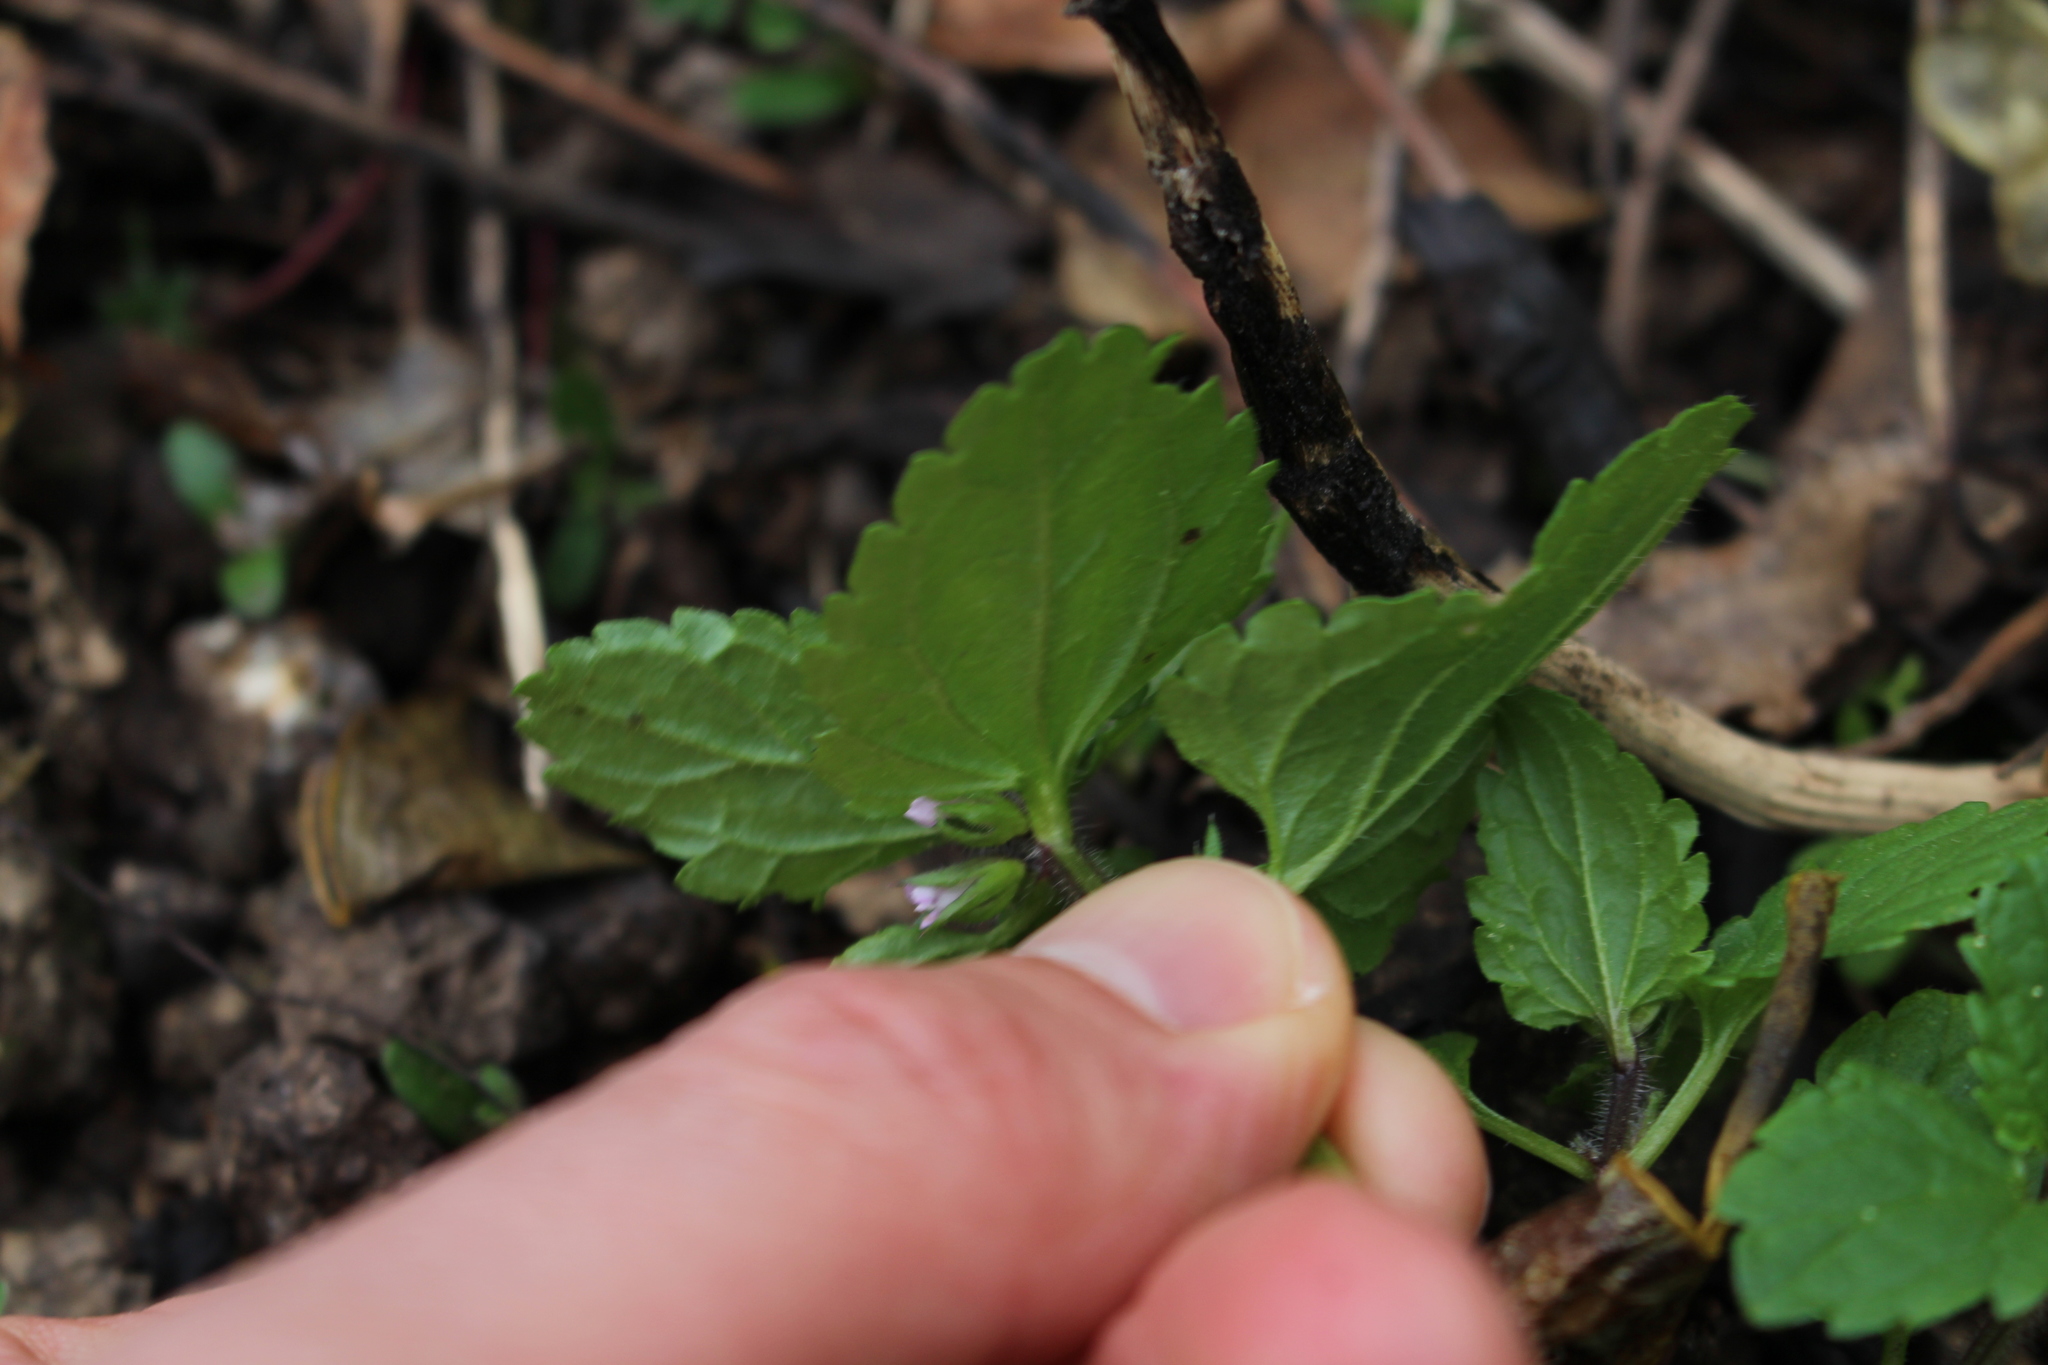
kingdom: Plantae
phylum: Tracheophyta
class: Magnoliopsida
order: Lamiales
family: Lamiaceae
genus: Stachys
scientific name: Stachys arvensis
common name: Field woundwort
